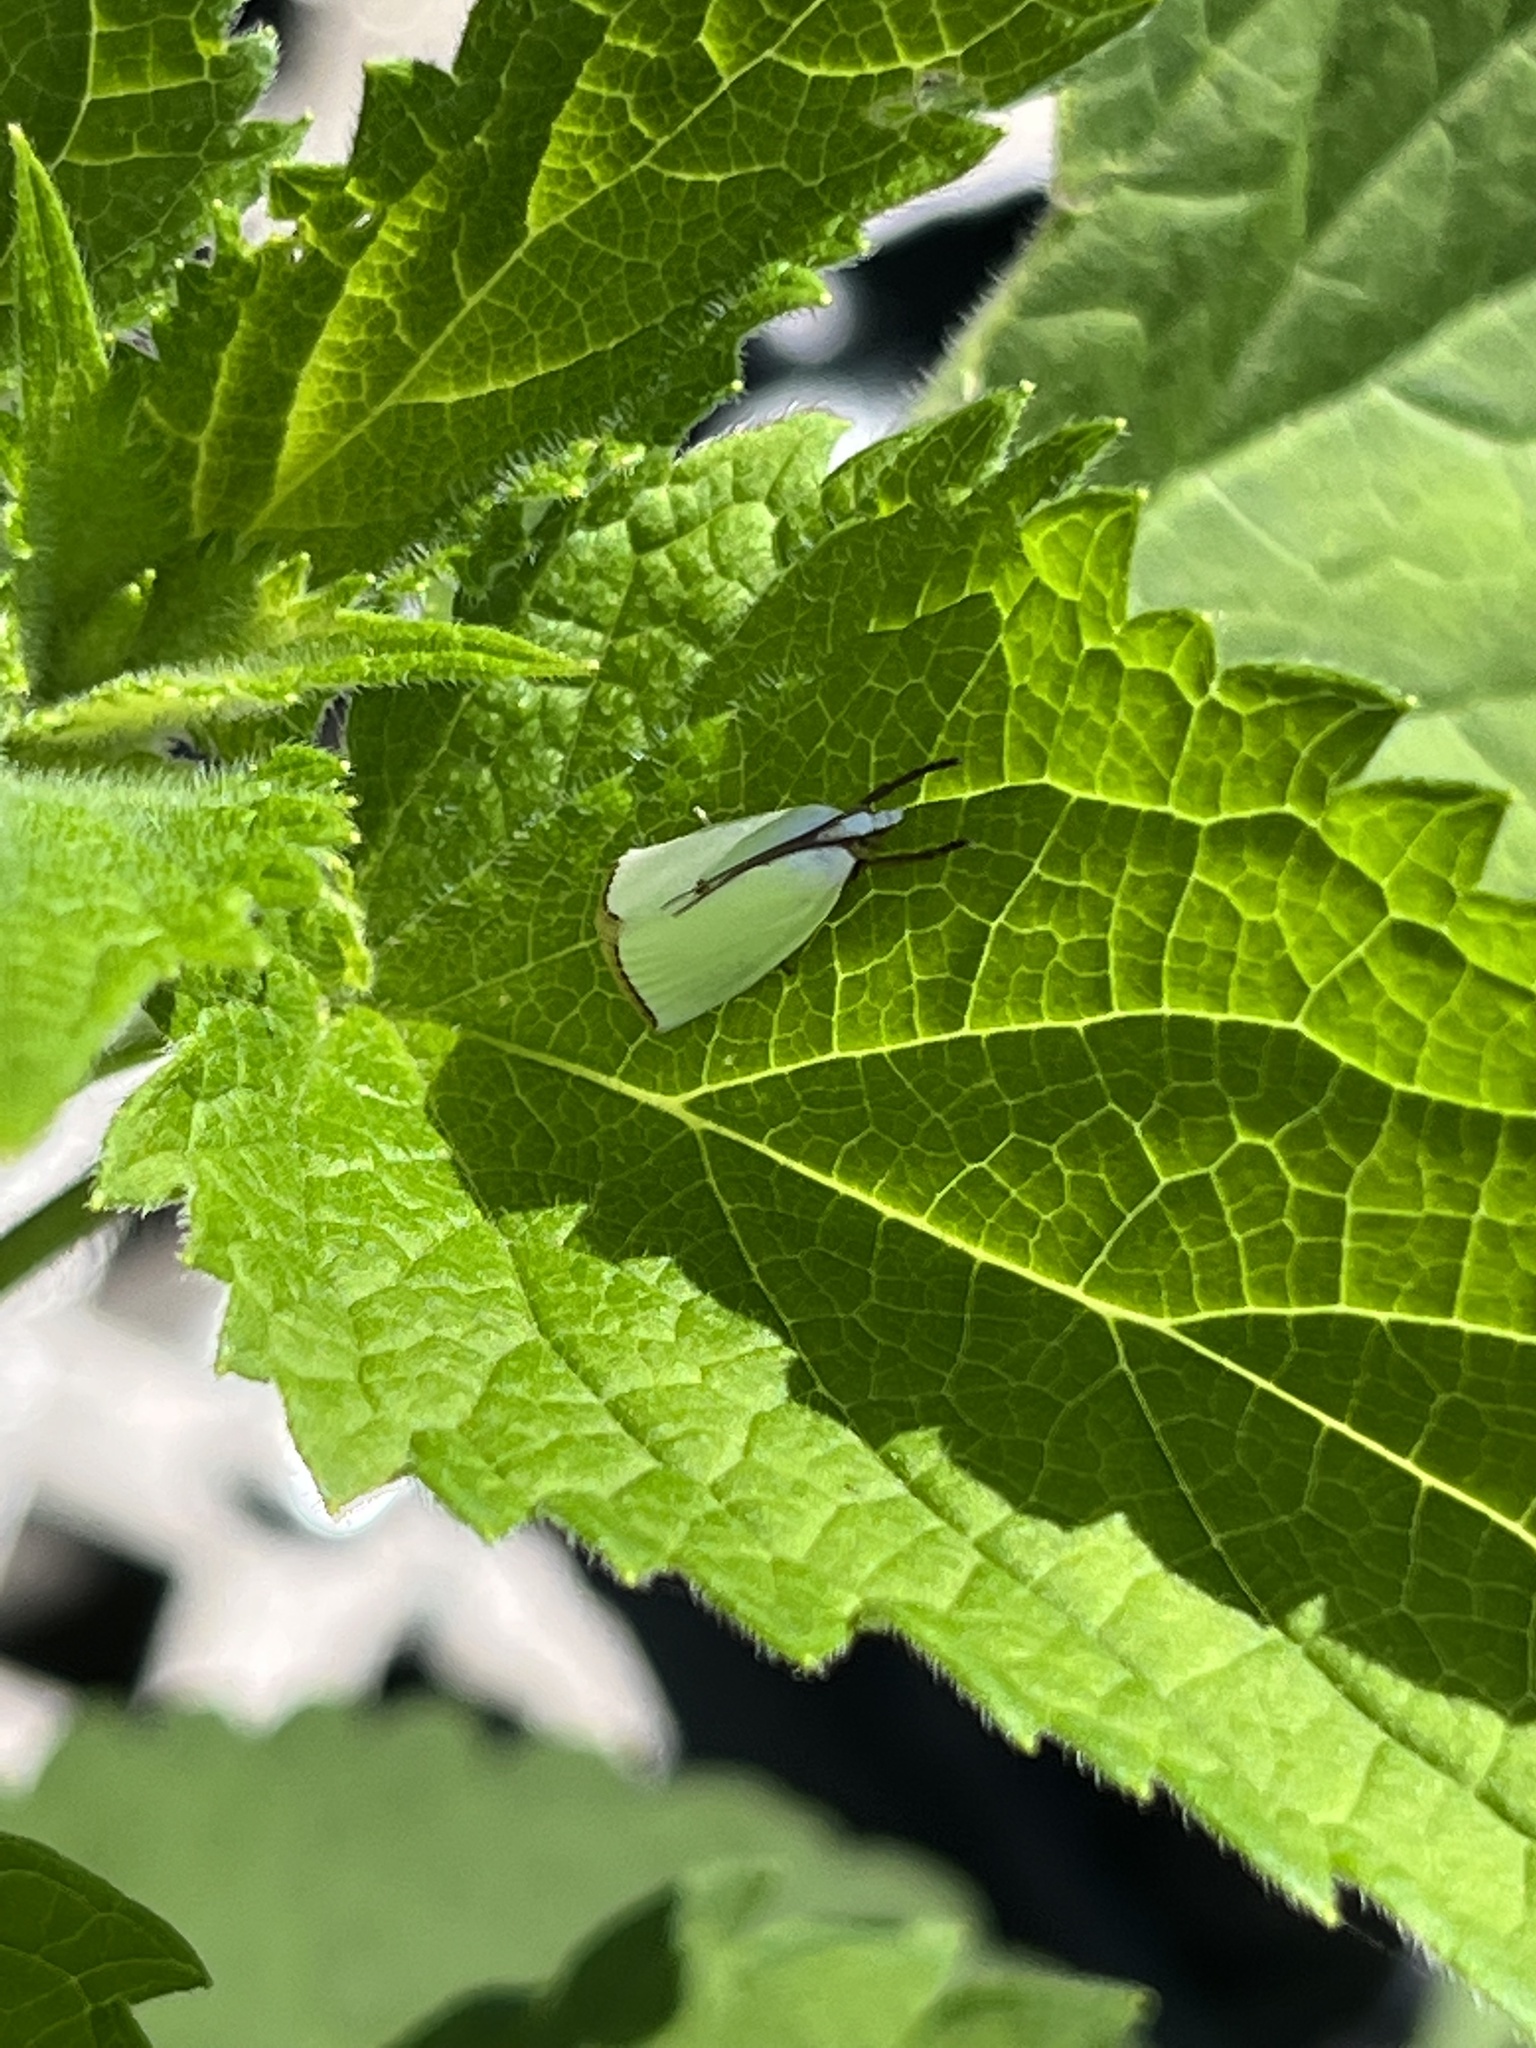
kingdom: Animalia
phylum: Arthropoda
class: Insecta
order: Lepidoptera
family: Crambidae
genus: Argyria
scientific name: Argyria nivalis
